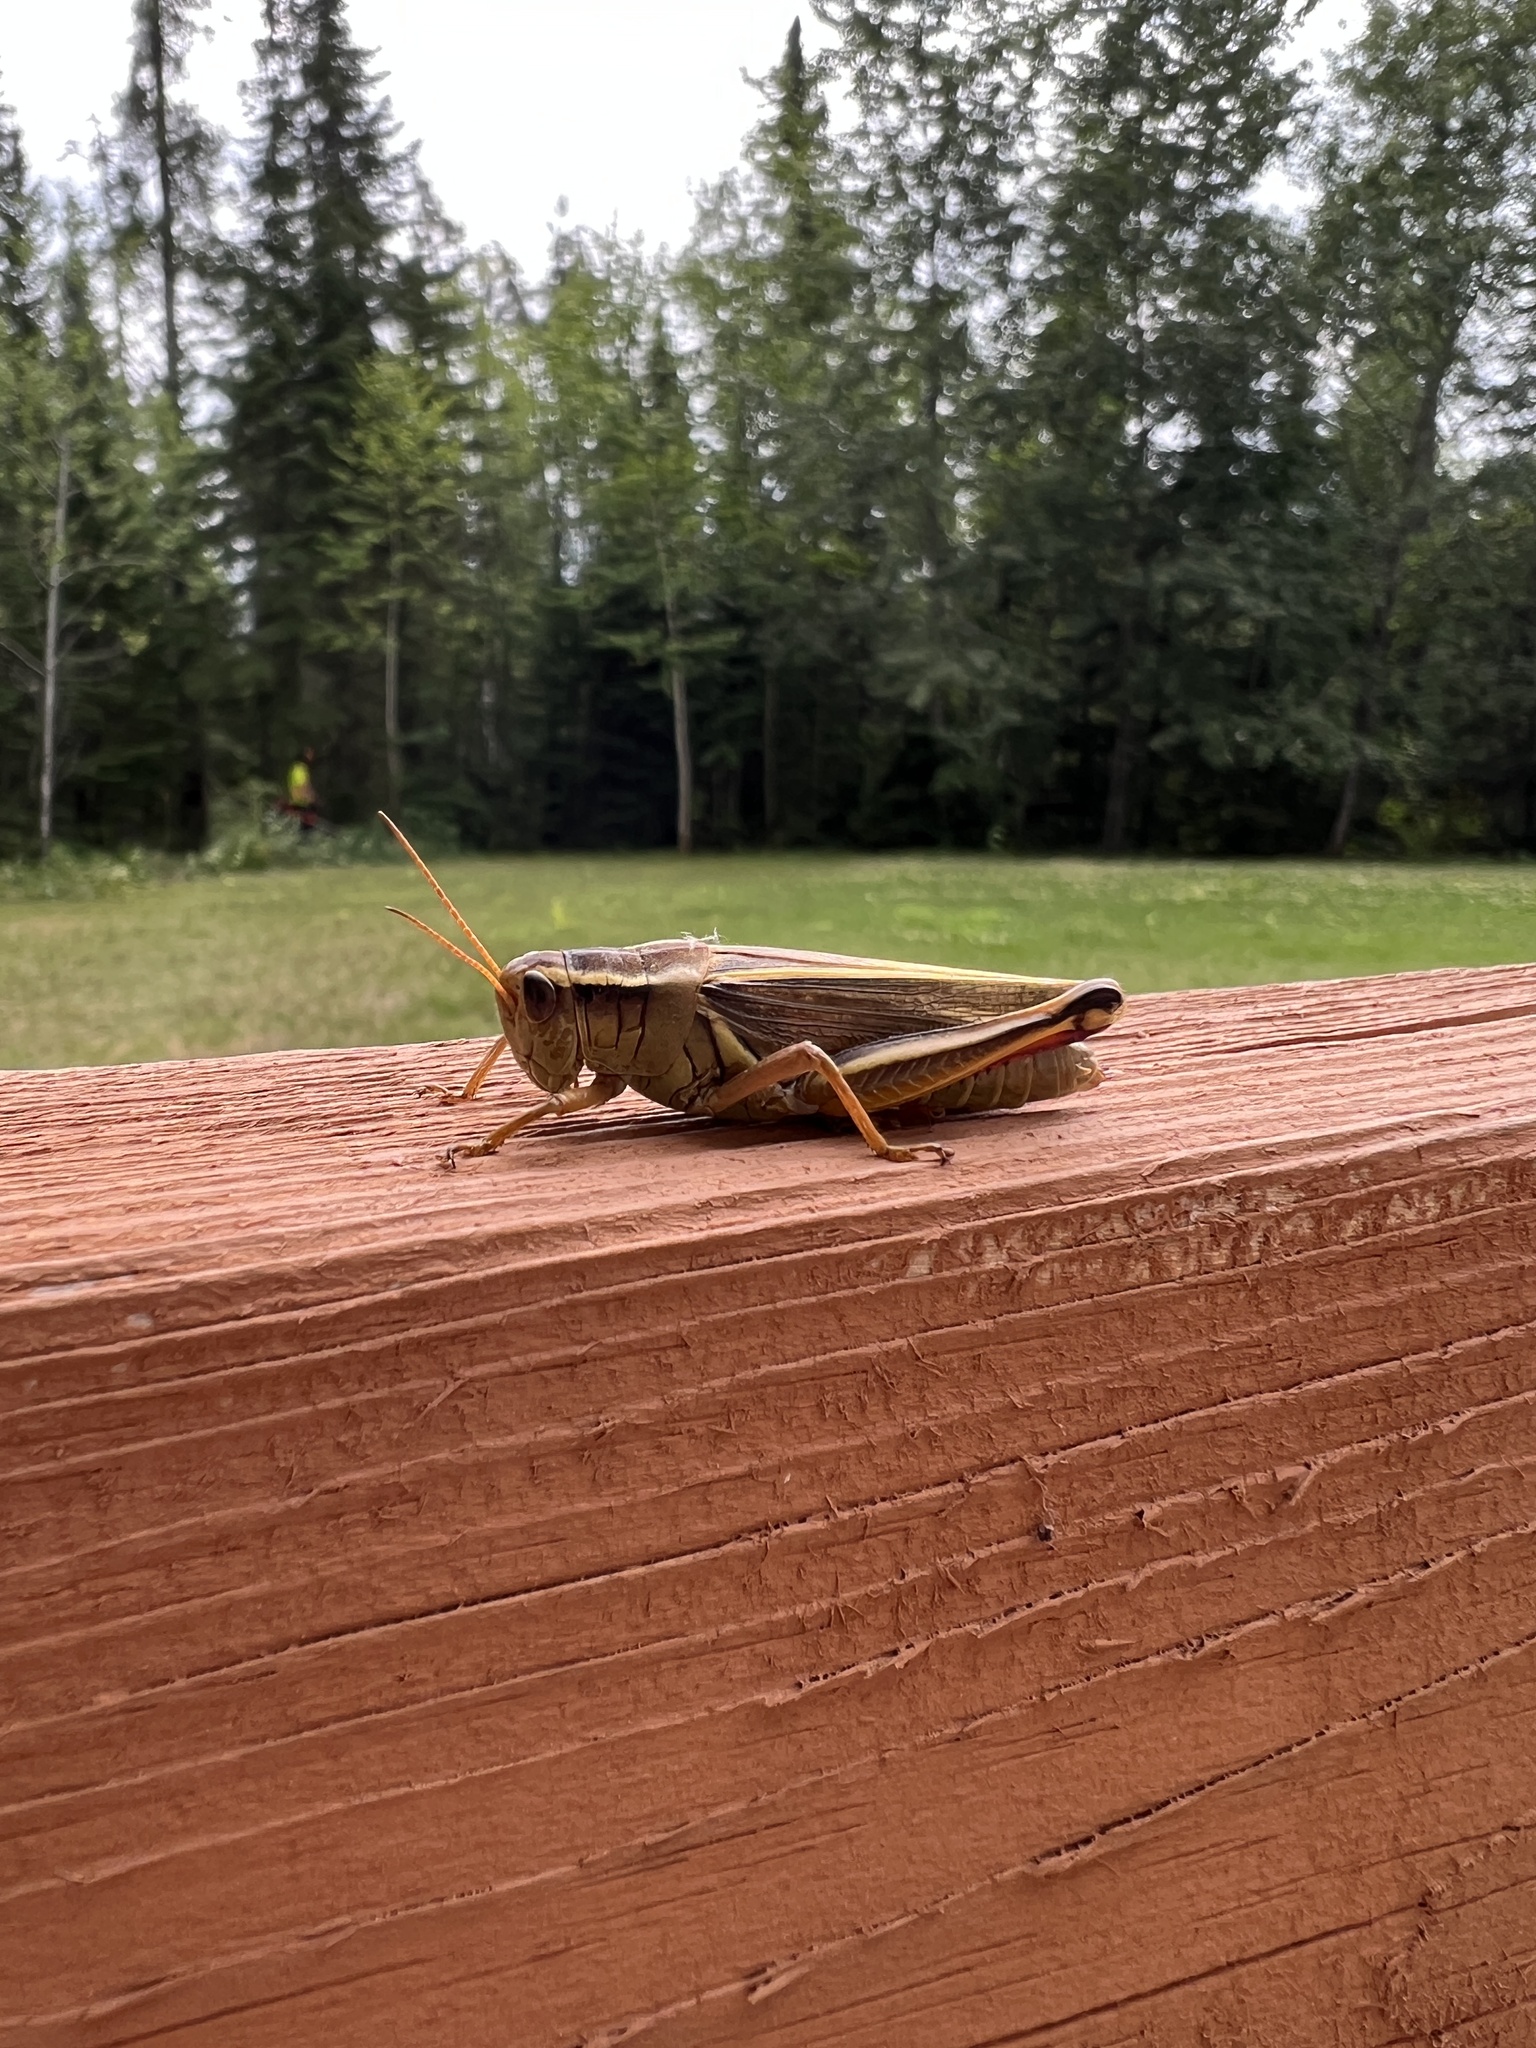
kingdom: Animalia
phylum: Arthropoda
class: Insecta
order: Orthoptera
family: Acrididae
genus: Melanoplus
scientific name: Melanoplus bivittatus
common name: Two-striped grasshopper
